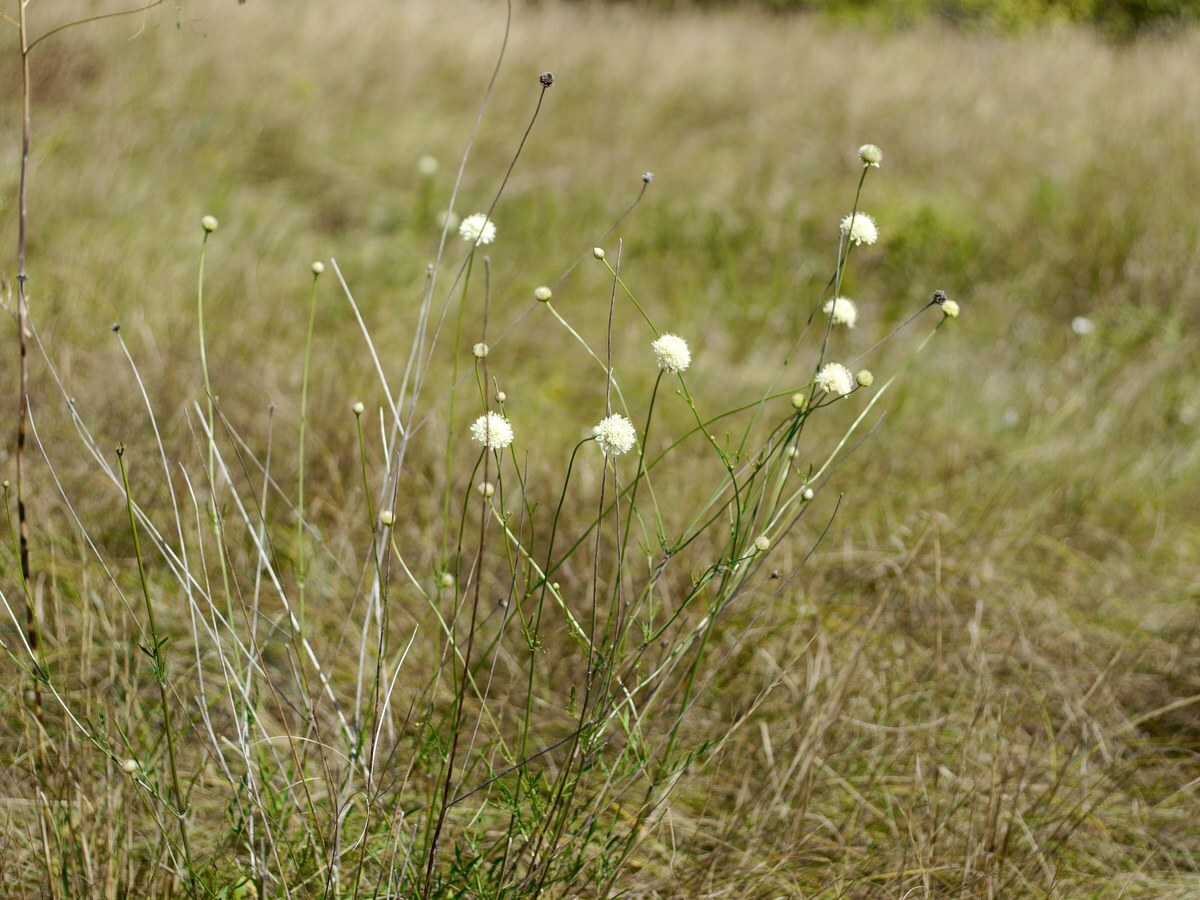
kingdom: Plantae
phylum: Tracheophyta
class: Magnoliopsida
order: Dipsacales
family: Caprifoliaceae
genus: Cephalaria
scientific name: Cephalaria uralensis
